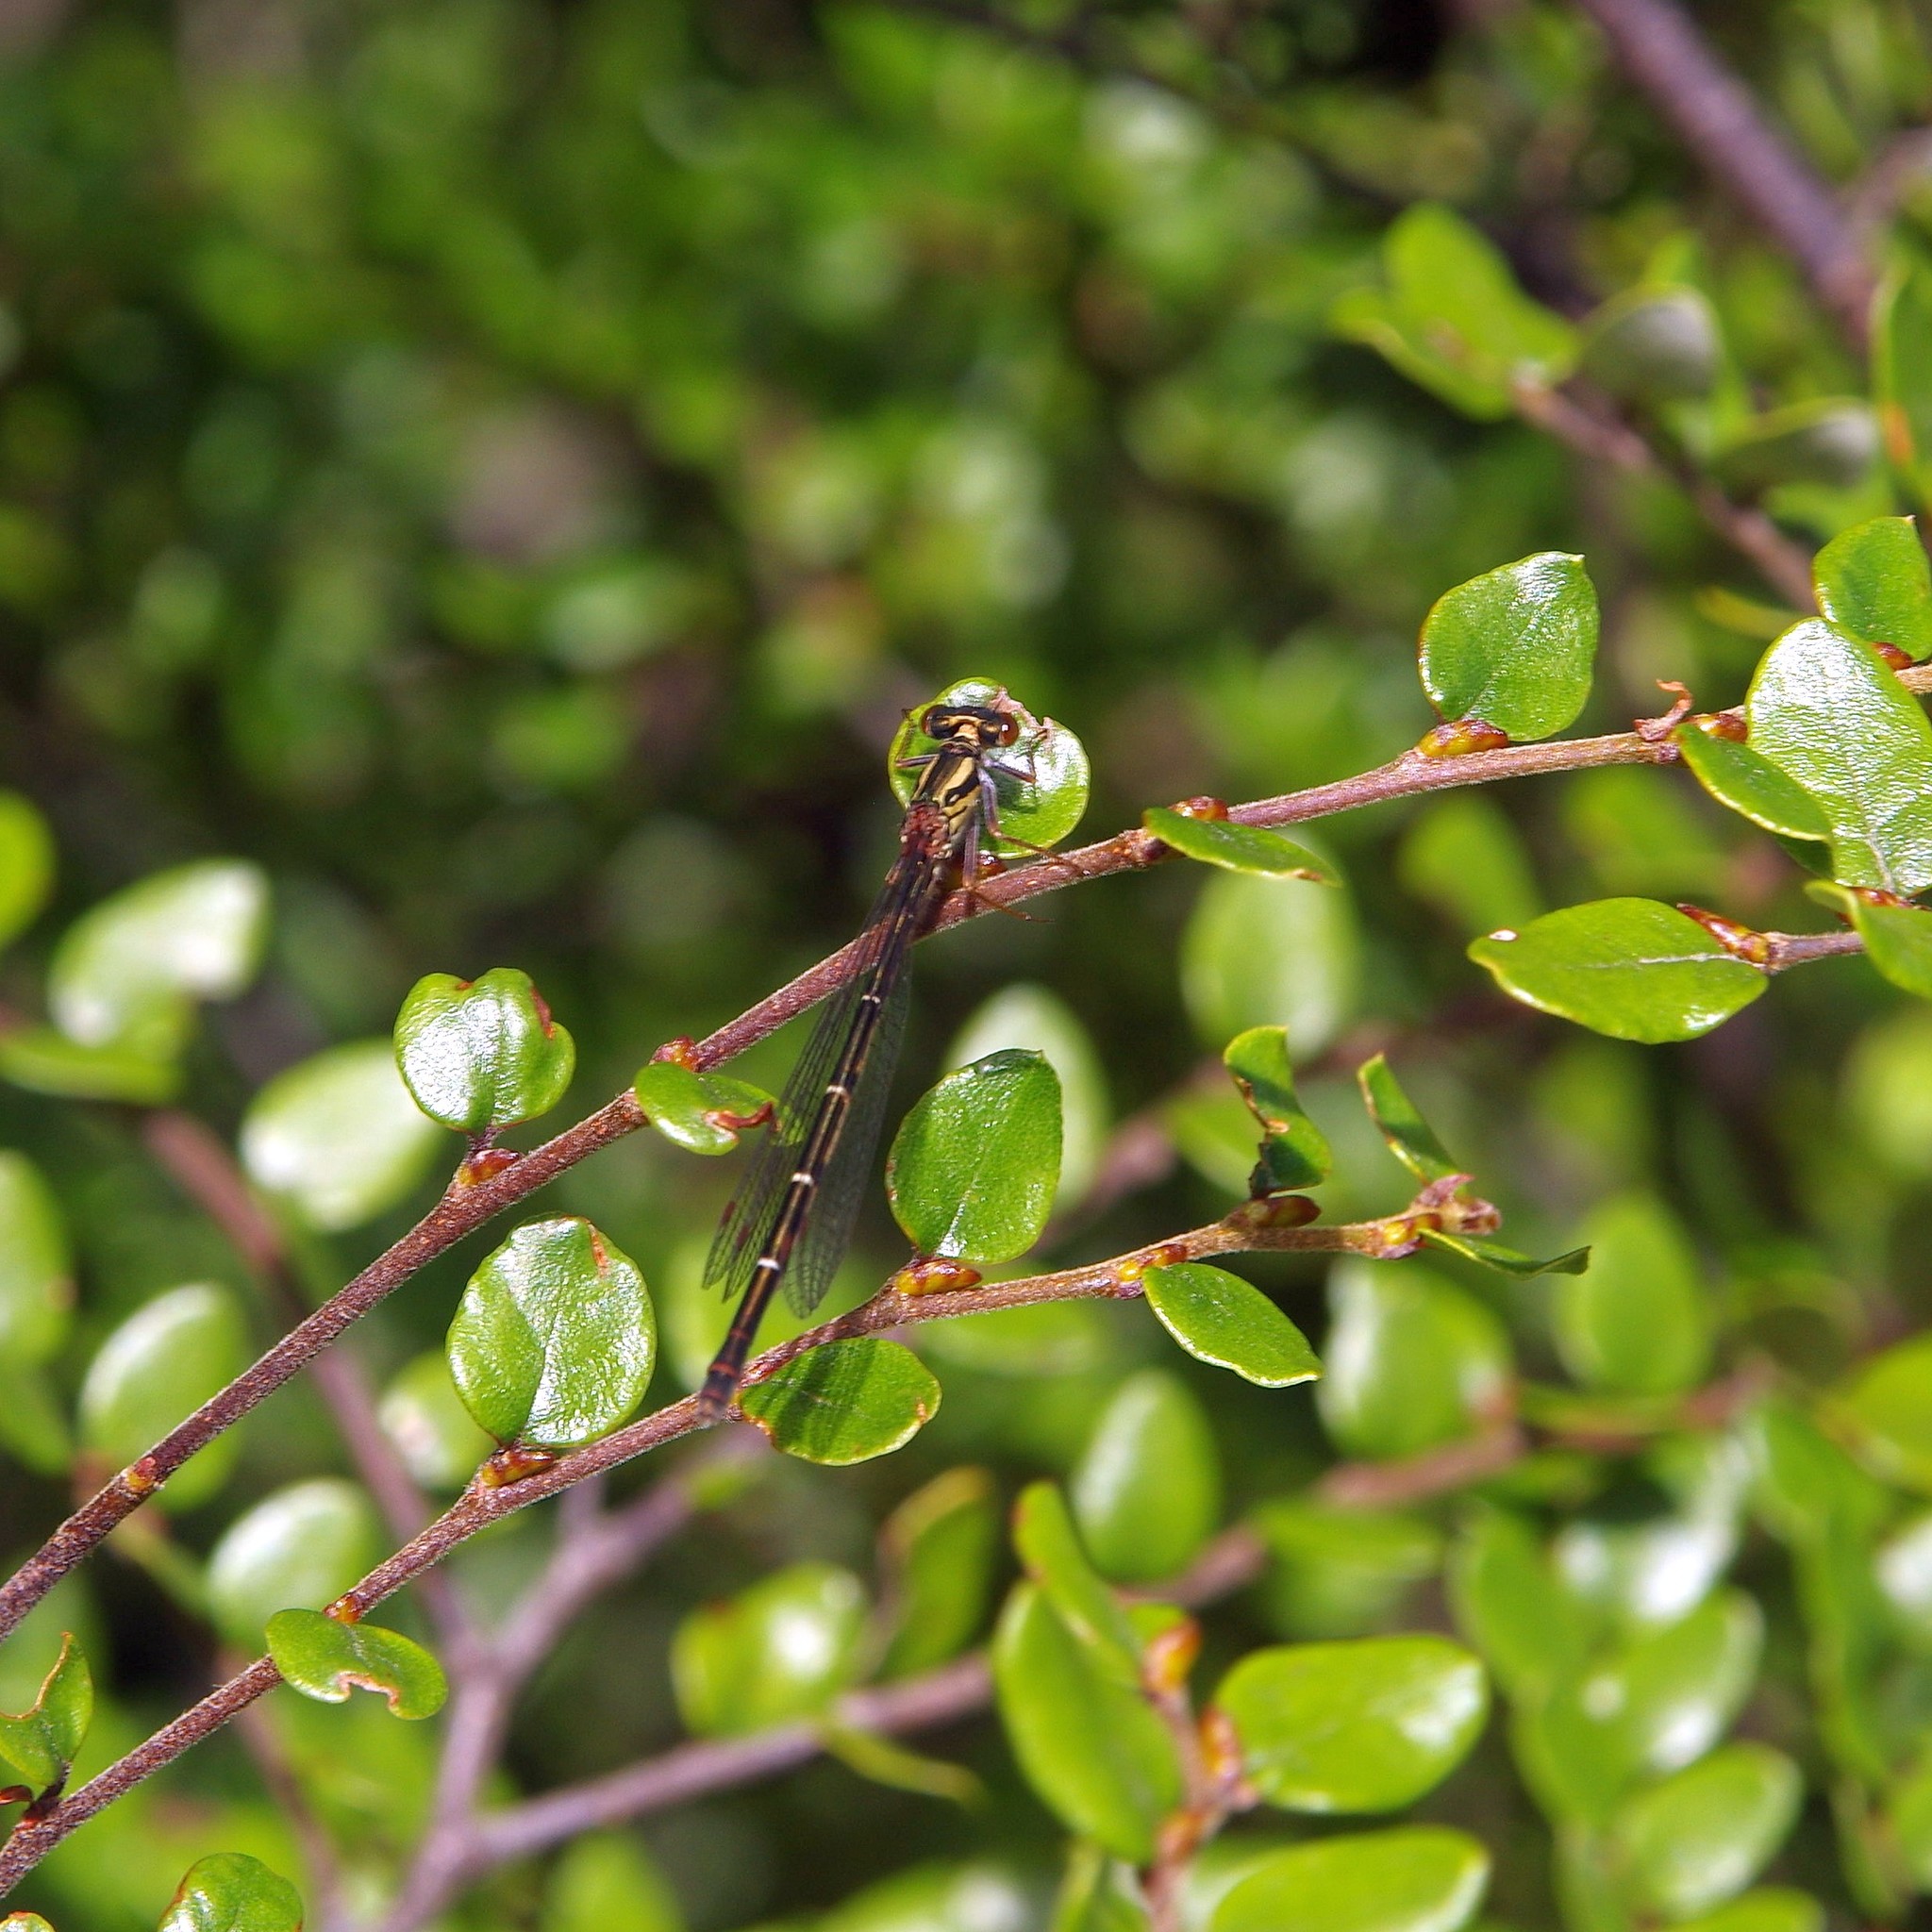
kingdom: Animalia
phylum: Arthropoda
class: Insecta
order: Odonata
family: Coenagrionidae
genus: Xanthocnemis
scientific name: Xanthocnemis zealandica
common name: Common redcoat damselfly
